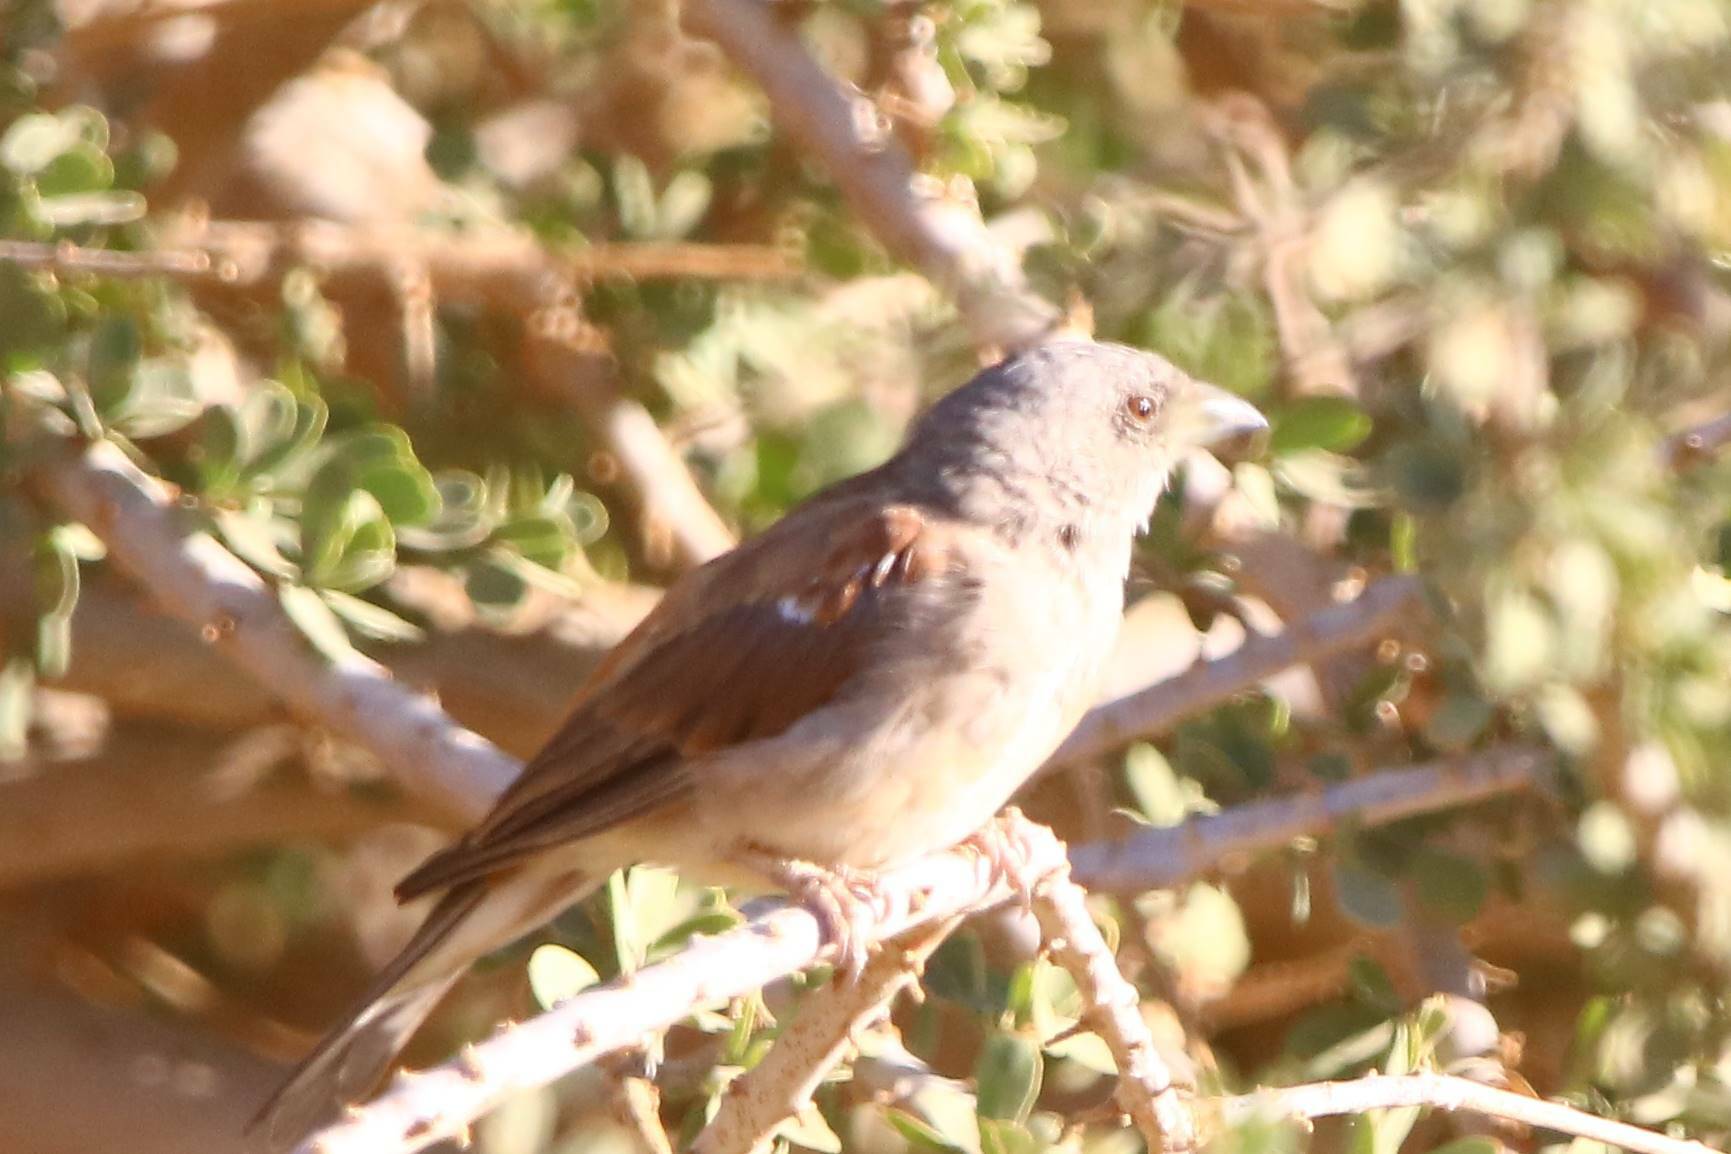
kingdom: Animalia
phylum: Chordata
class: Aves
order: Passeriformes
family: Passeridae
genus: Passer
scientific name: Passer griseus
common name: Northern grey-headed sparrow
